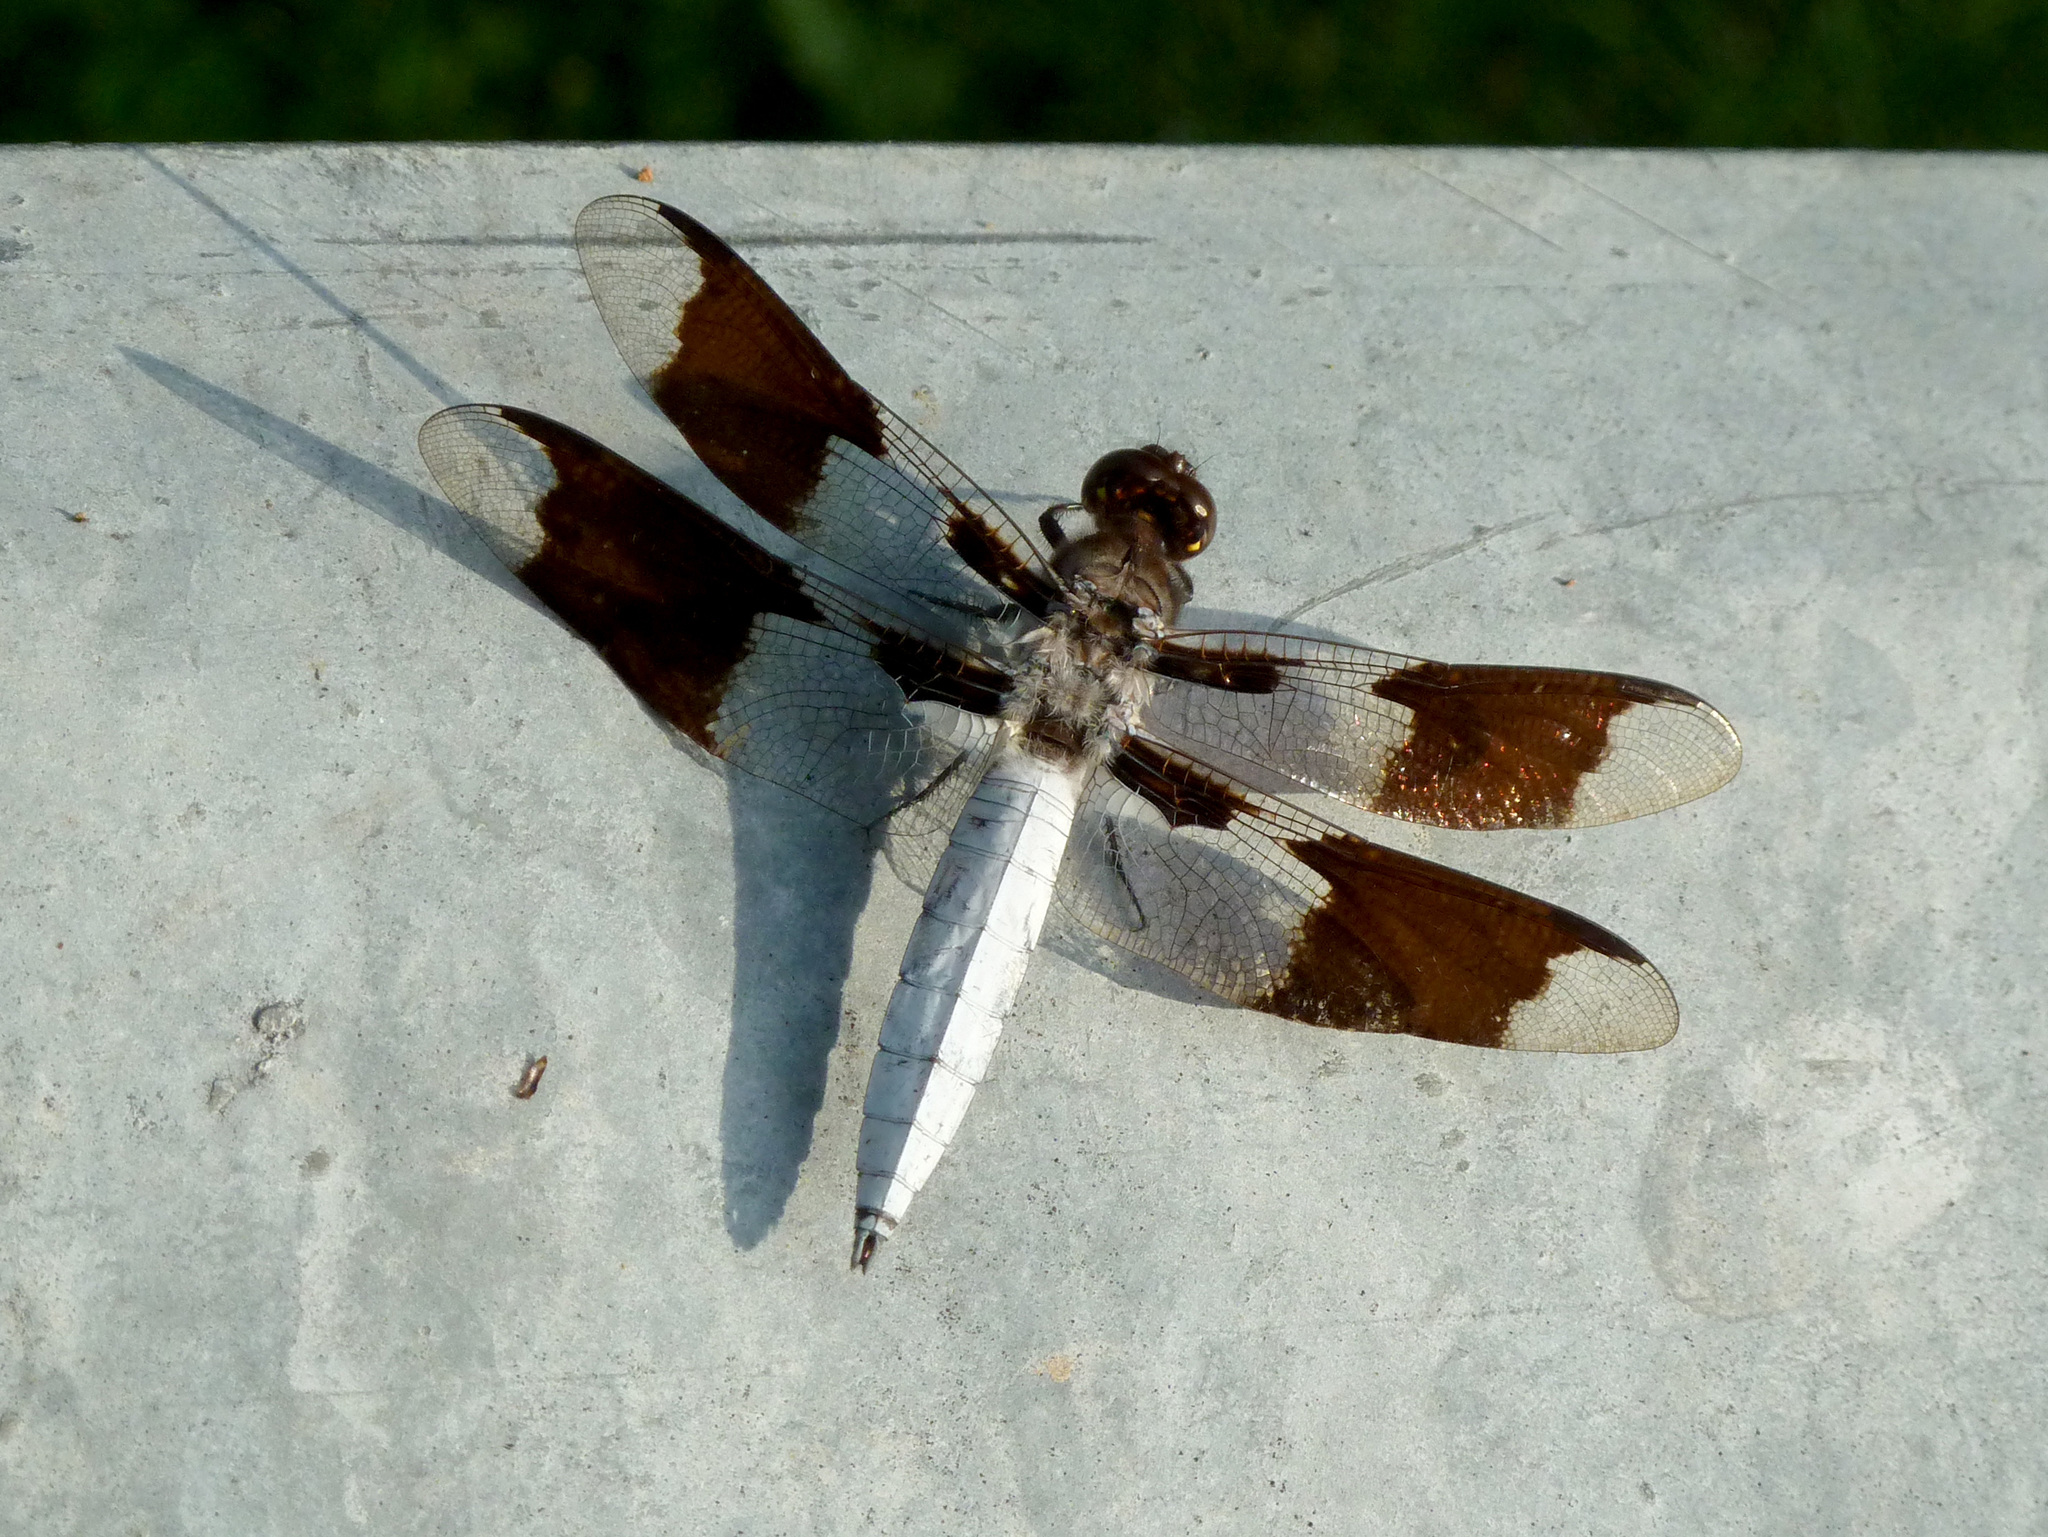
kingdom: Animalia
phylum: Arthropoda
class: Insecta
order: Odonata
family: Libellulidae
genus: Plathemis
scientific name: Plathemis lydia
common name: Common whitetail
